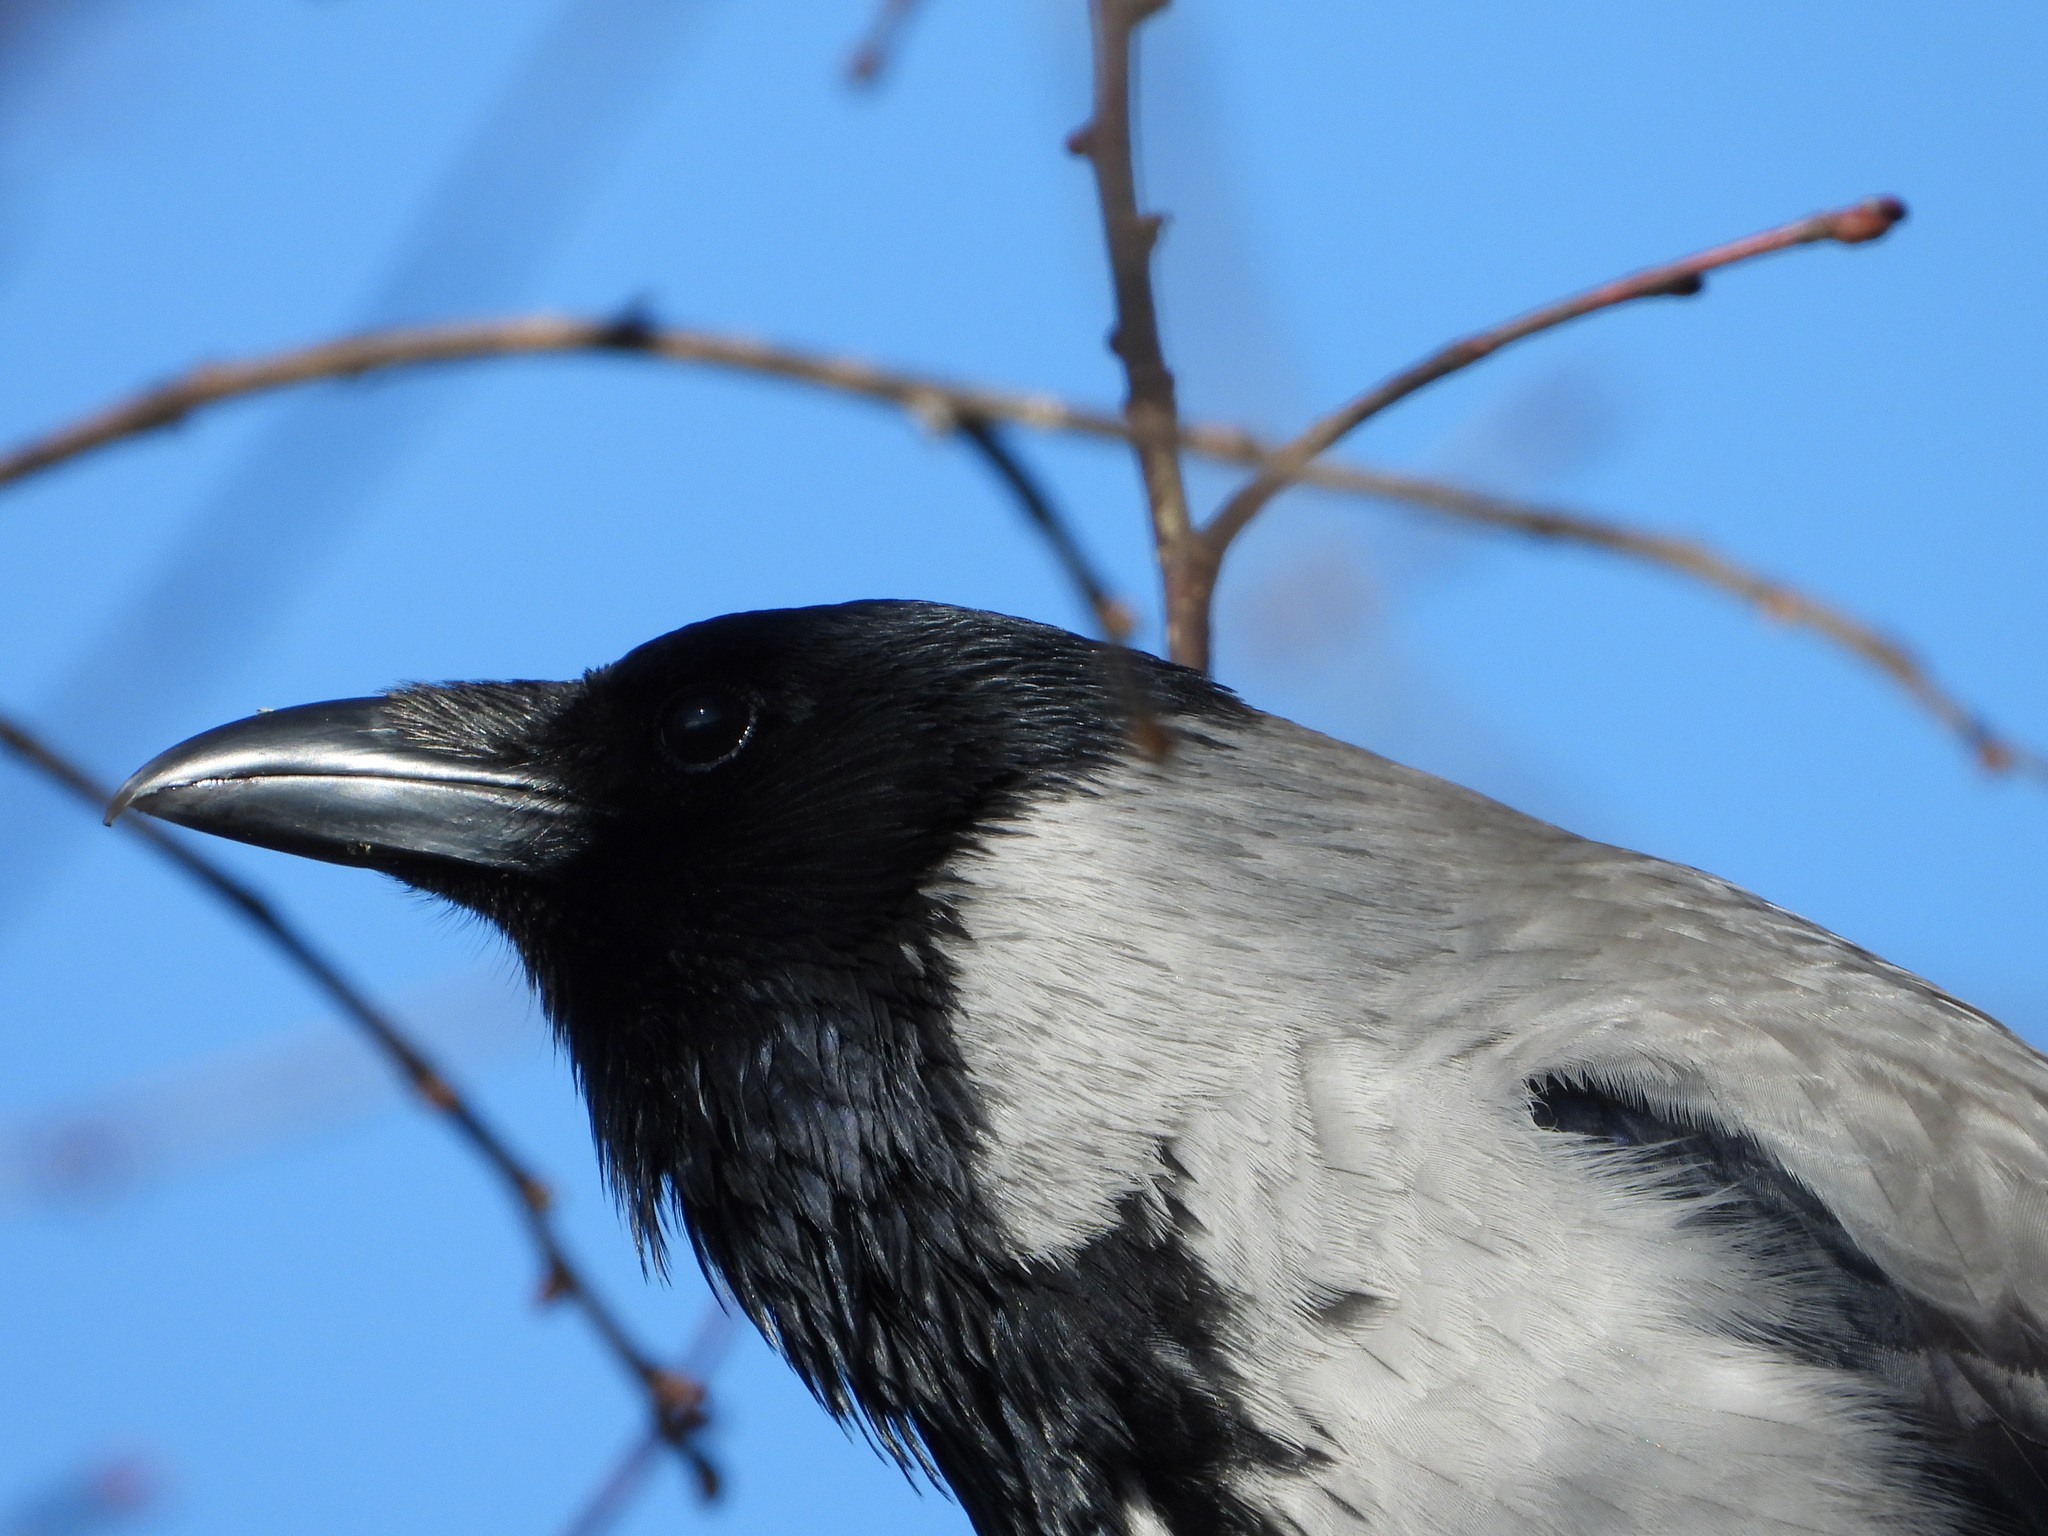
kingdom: Animalia
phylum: Chordata
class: Aves
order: Passeriformes
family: Corvidae
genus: Corvus
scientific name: Corvus cornix
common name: Hooded crow
